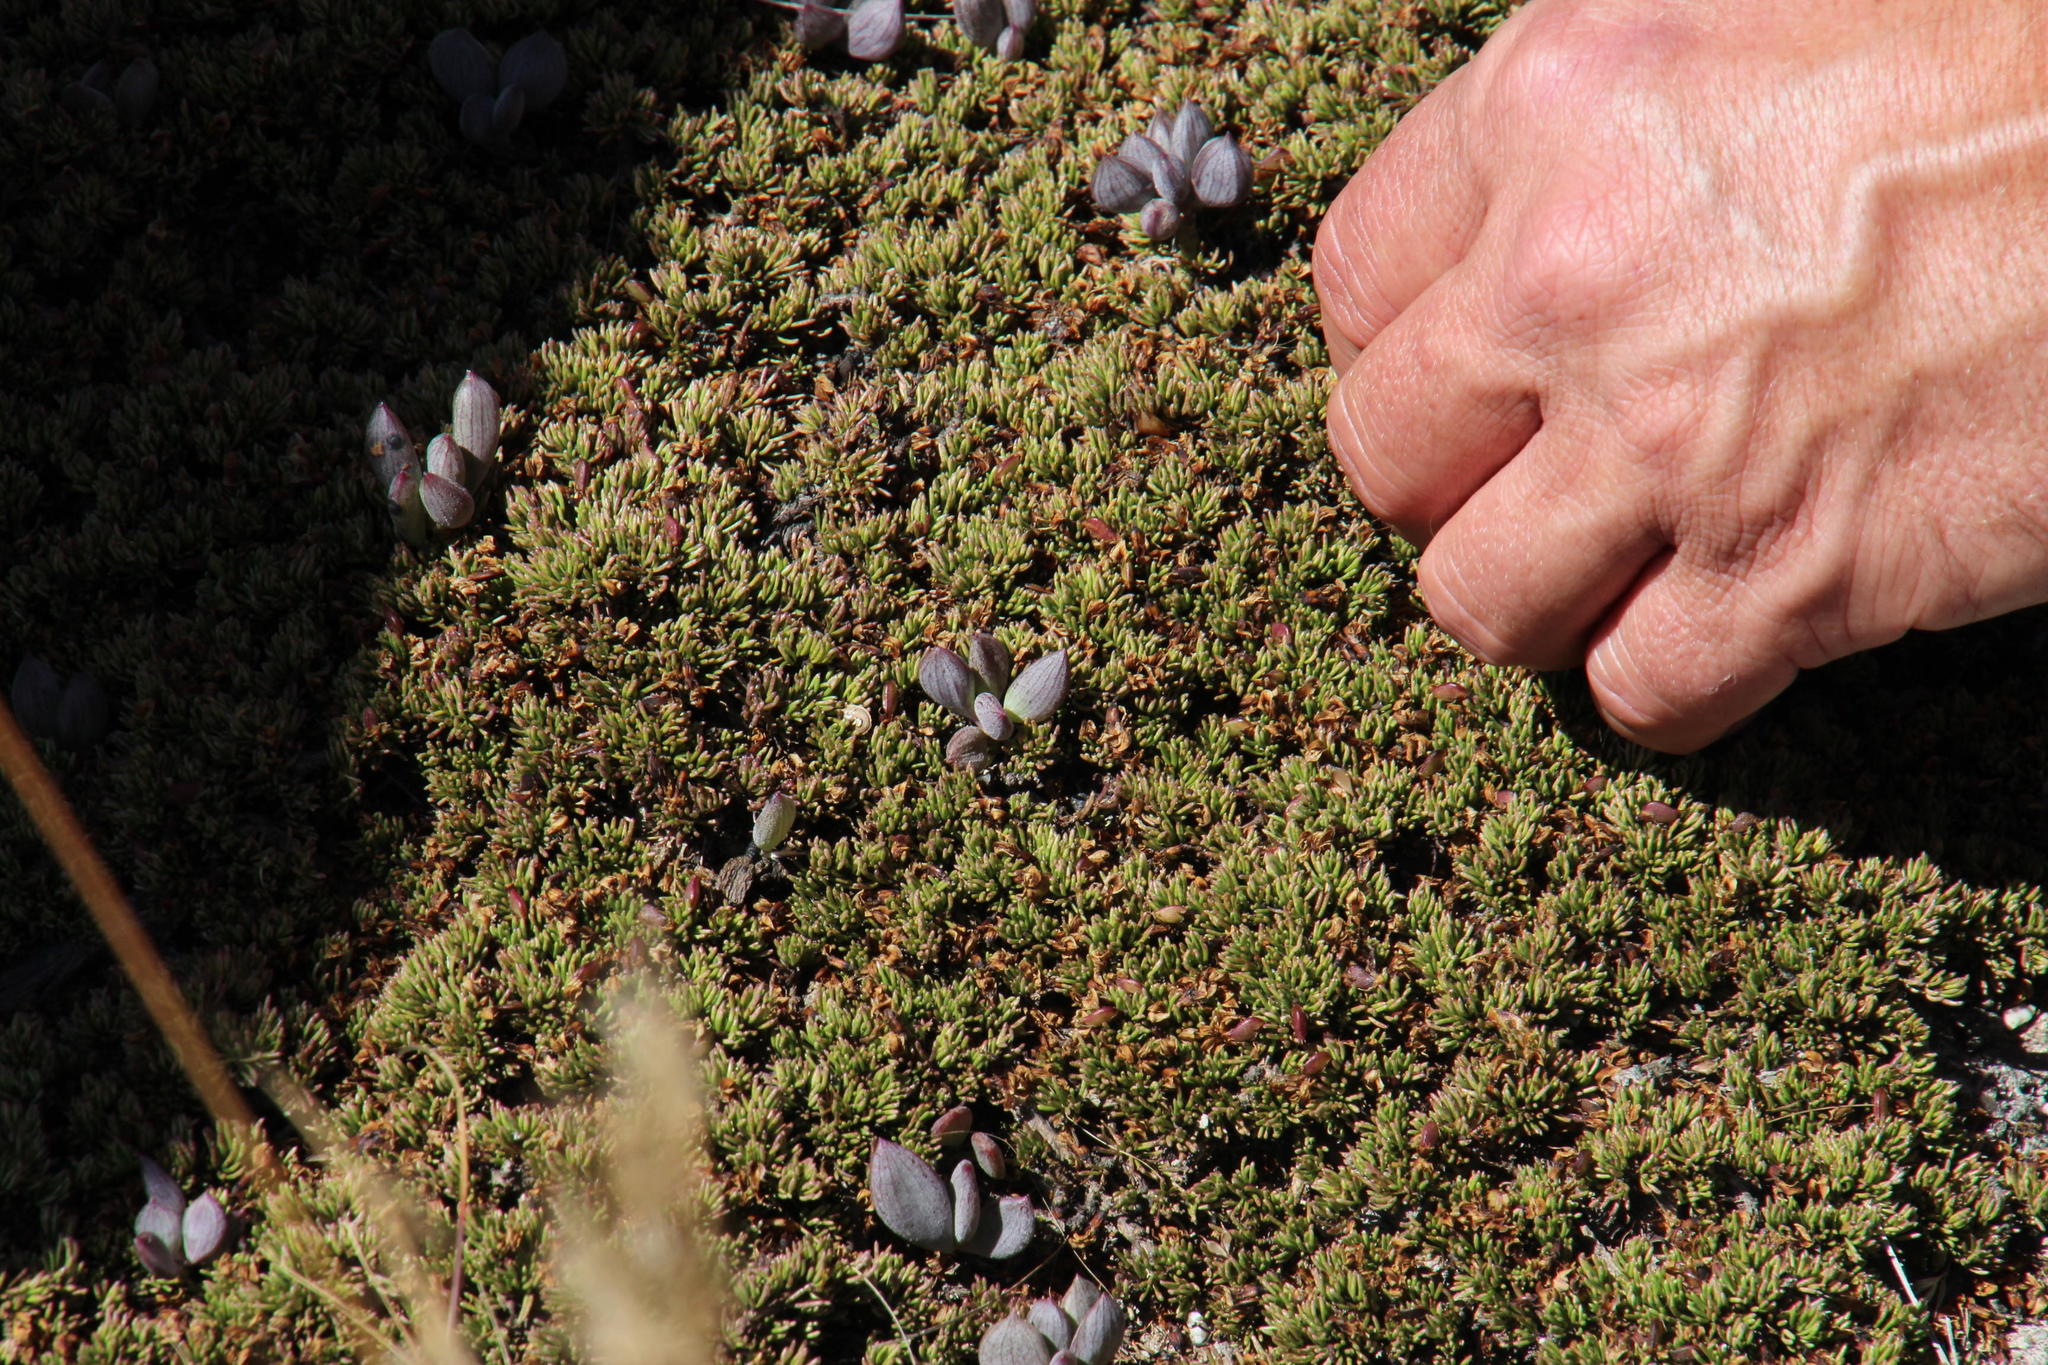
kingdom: Plantae
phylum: Tracheophyta
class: Magnoliopsida
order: Asterales
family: Asteraceae
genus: Curio
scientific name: Curio archeri
